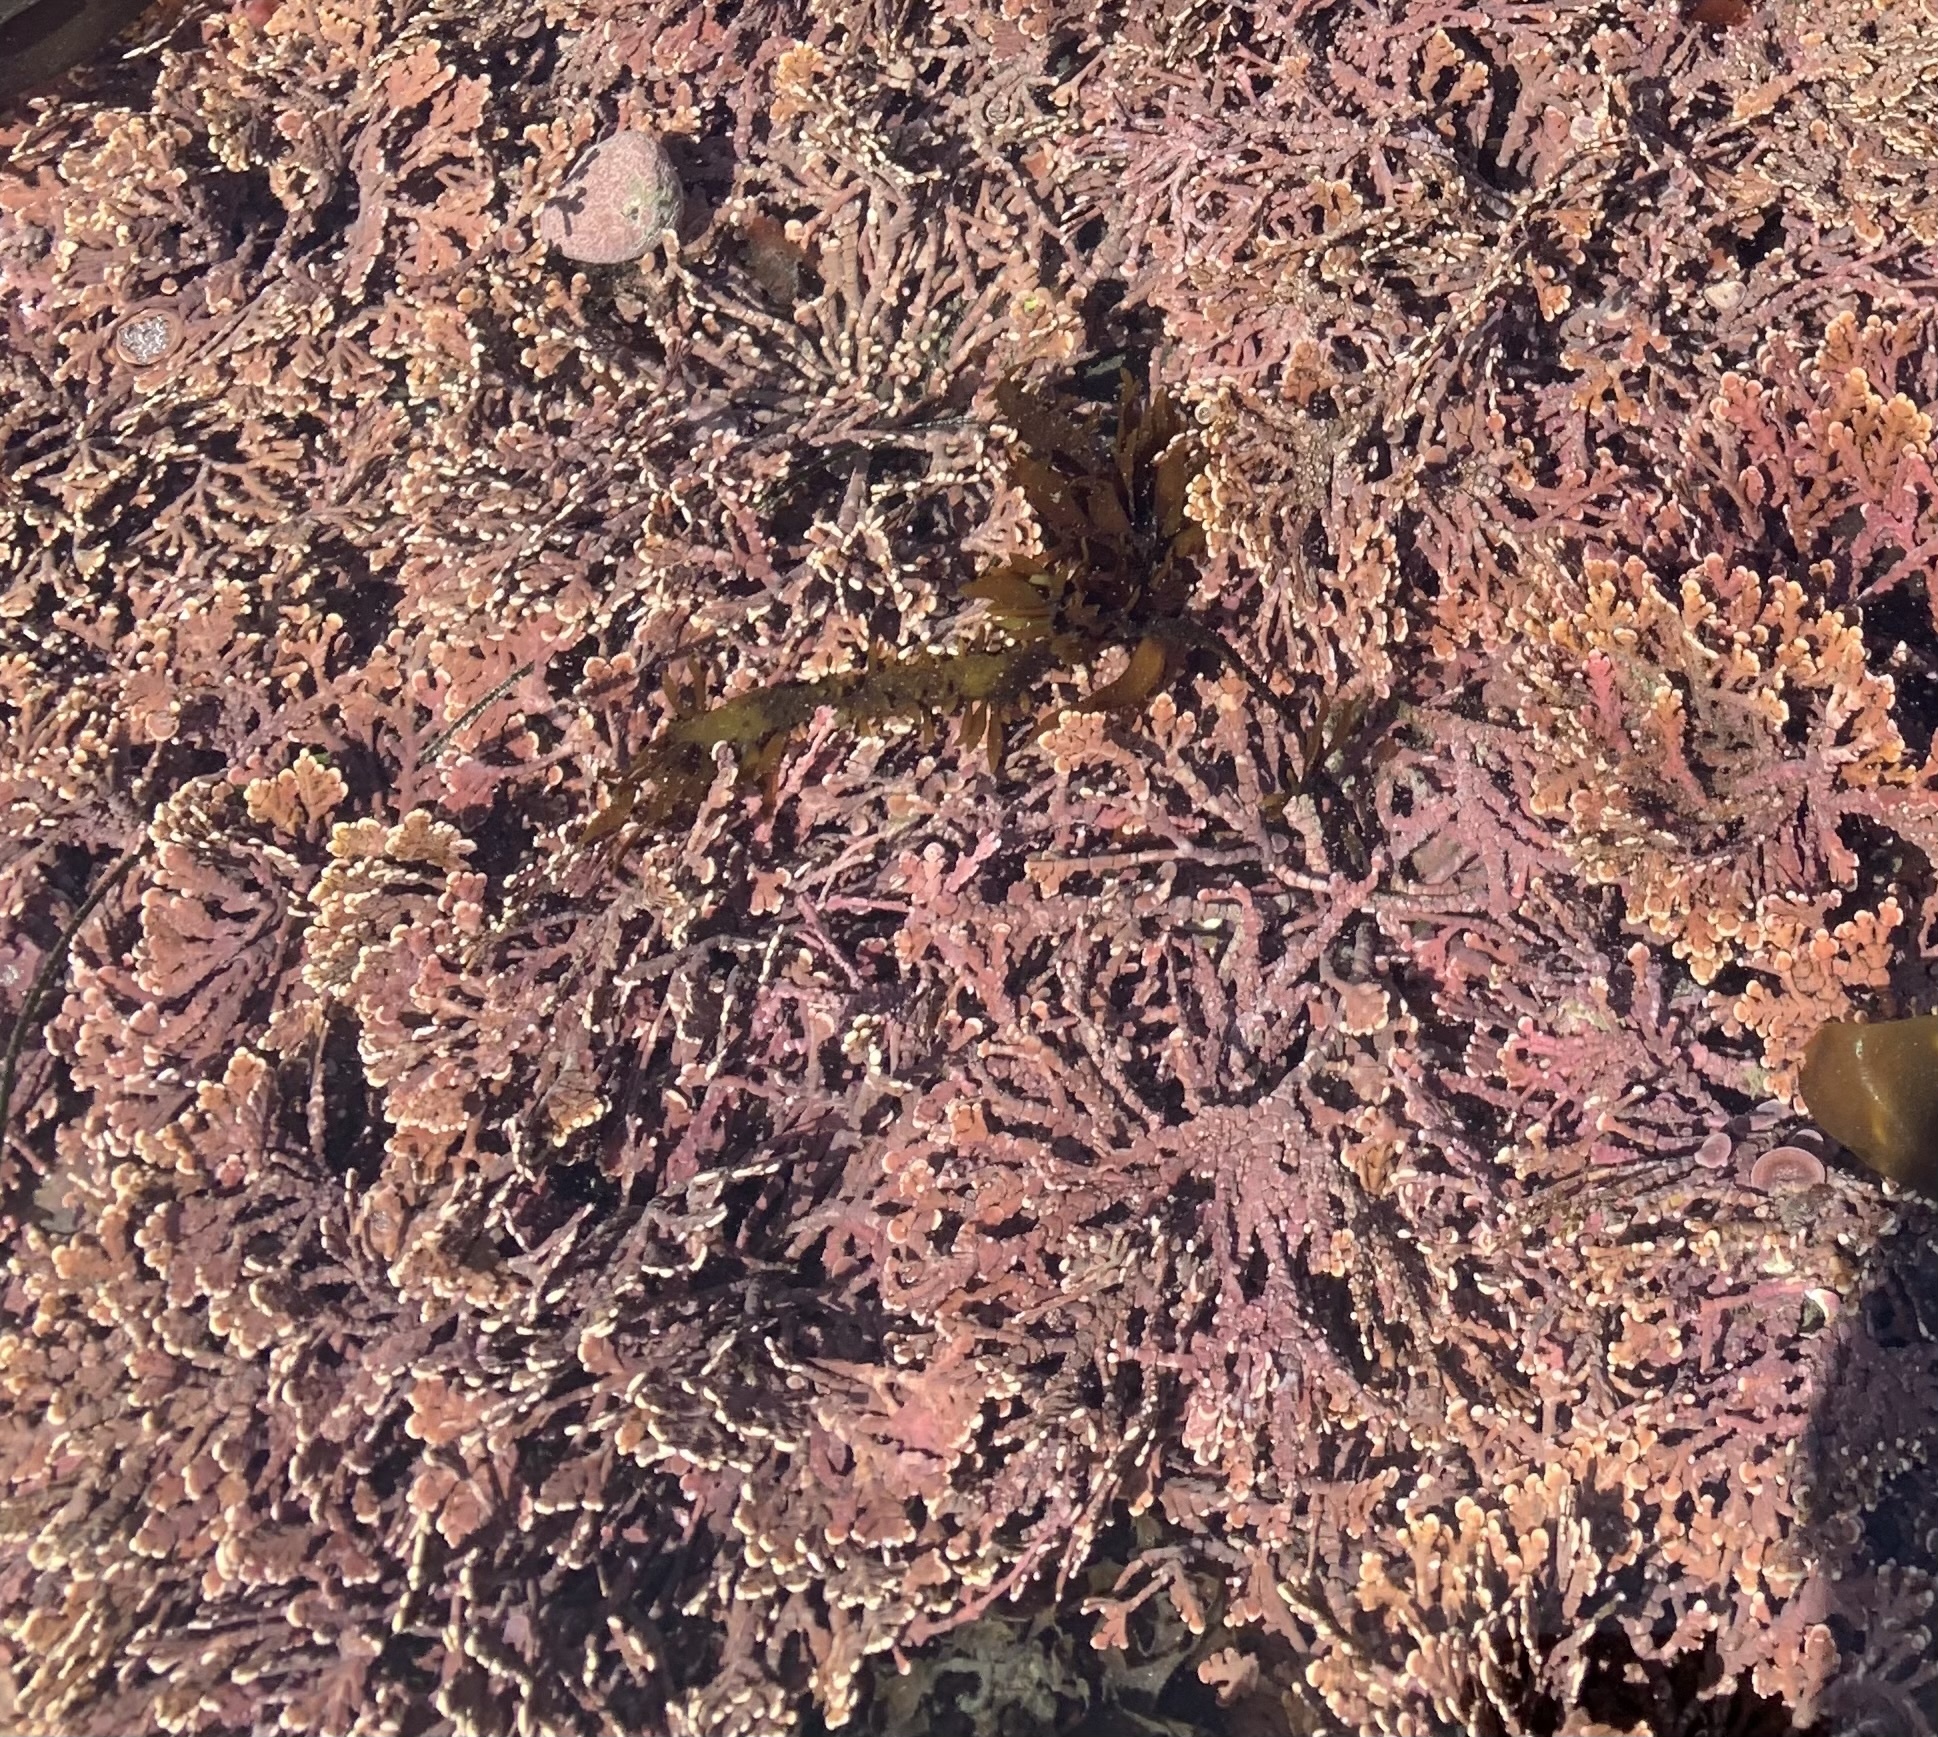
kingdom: Plantae
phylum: Rhodophyta
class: Florideophyceae
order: Corallinales
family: Corallinaceae
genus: Calliarthron
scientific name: Calliarthron tuberculosum
